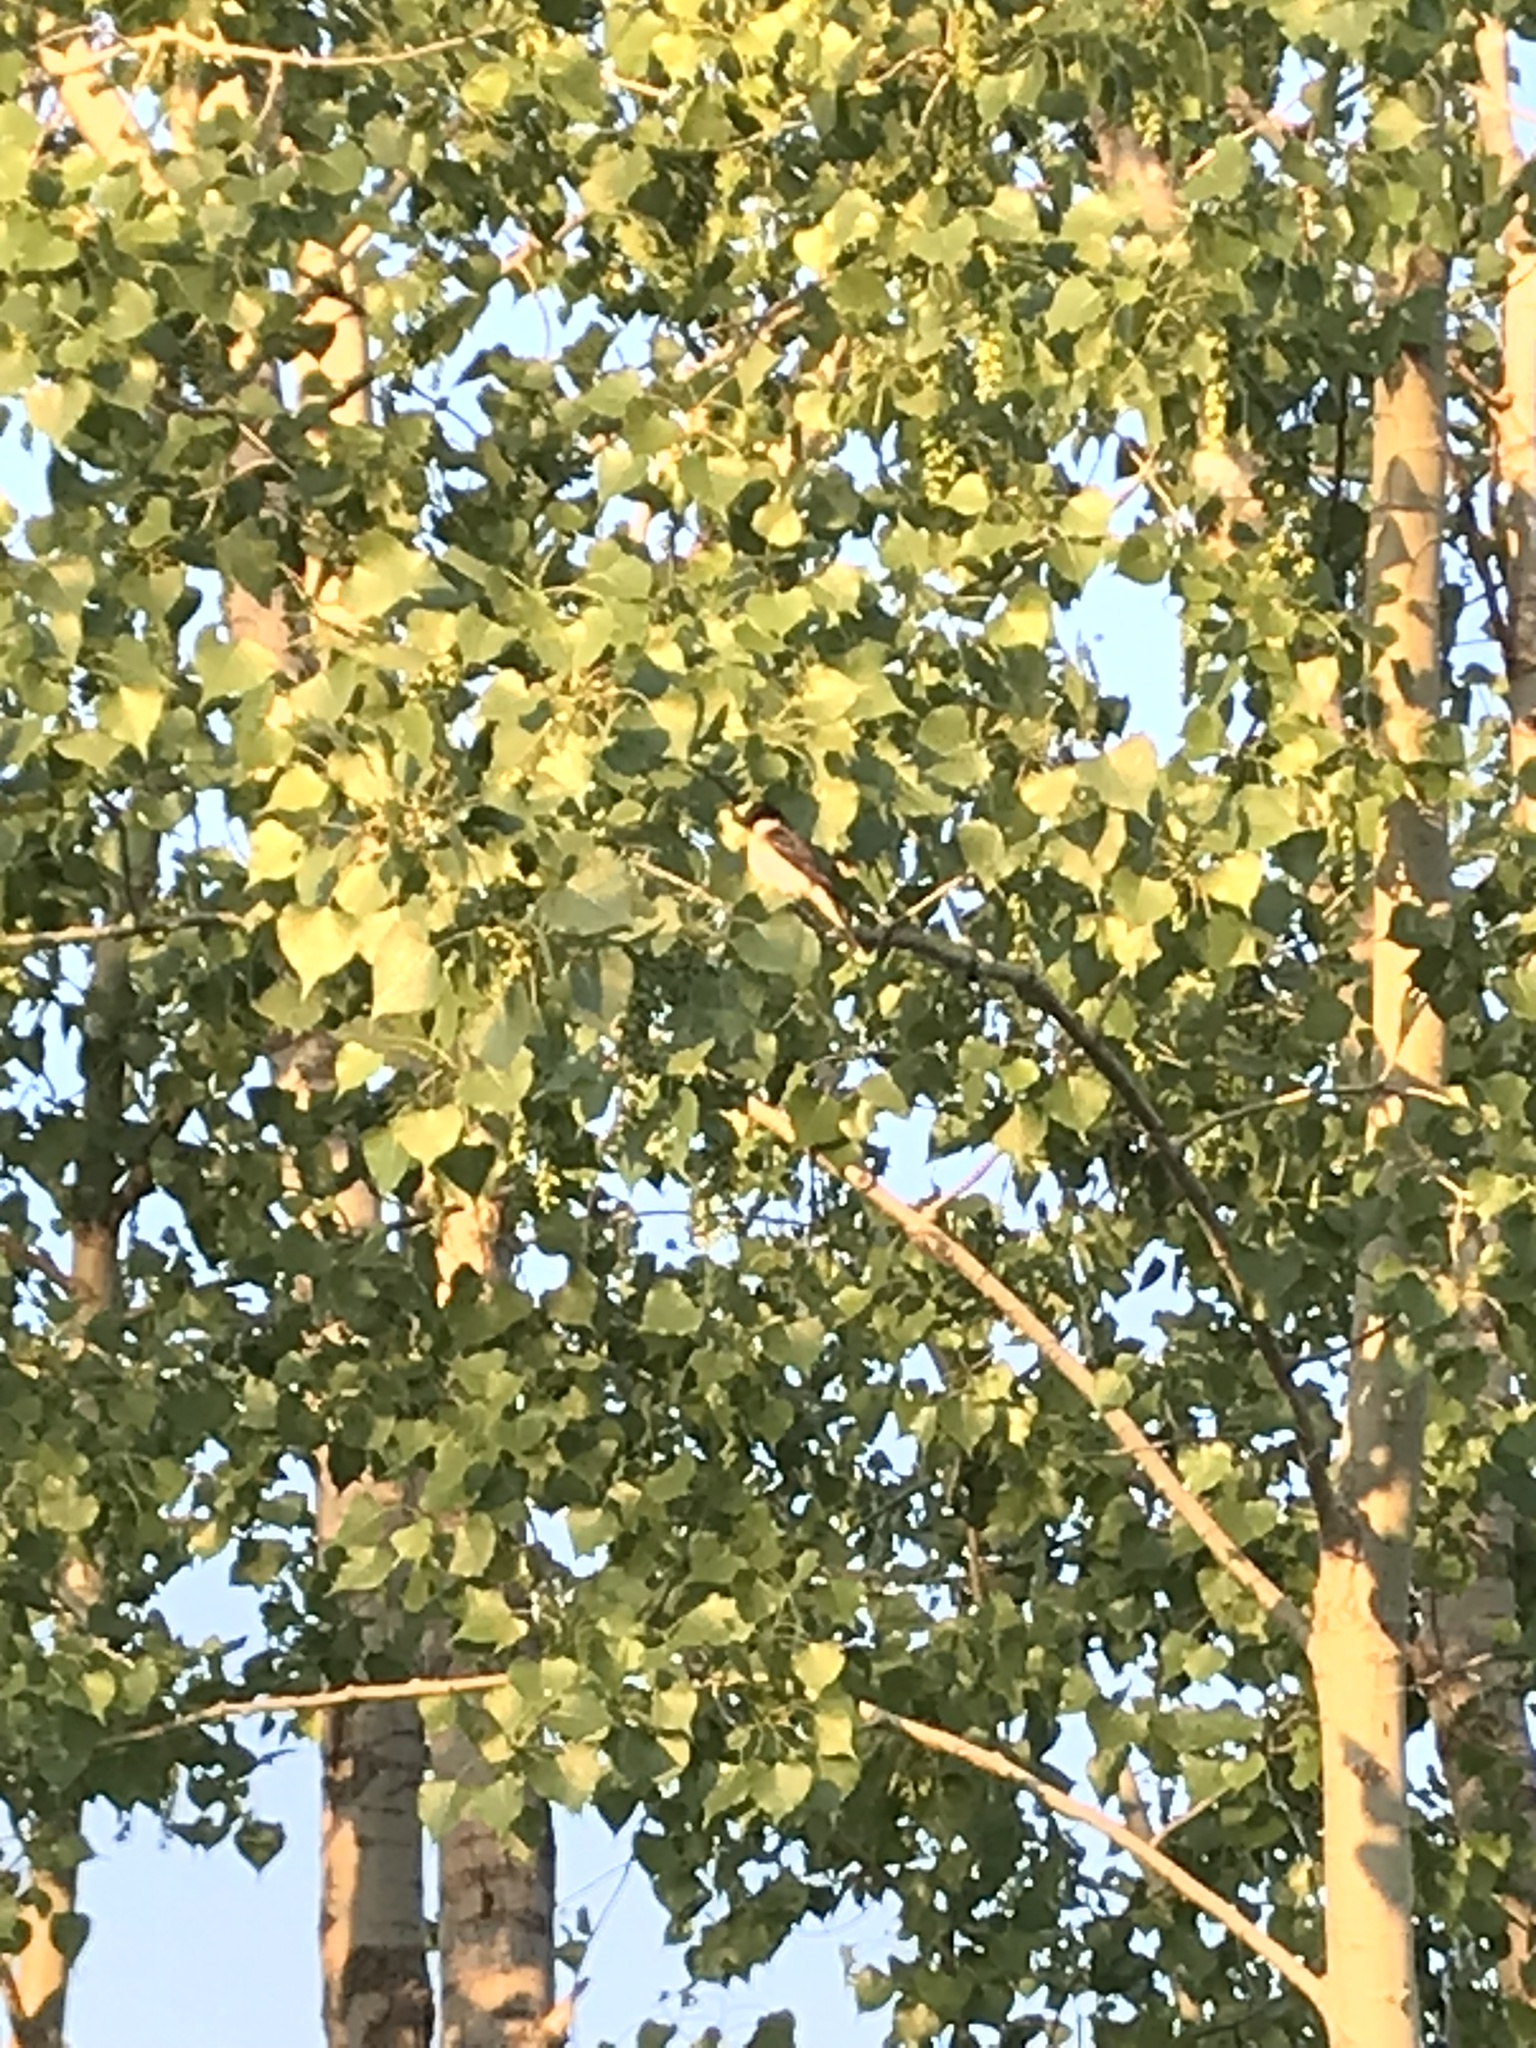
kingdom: Animalia
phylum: Chordata
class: Aves
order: Passeriformes
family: Tyrannidae
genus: Tyrannus
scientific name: Tyrannus tyrannus
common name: Eastern kingbird
